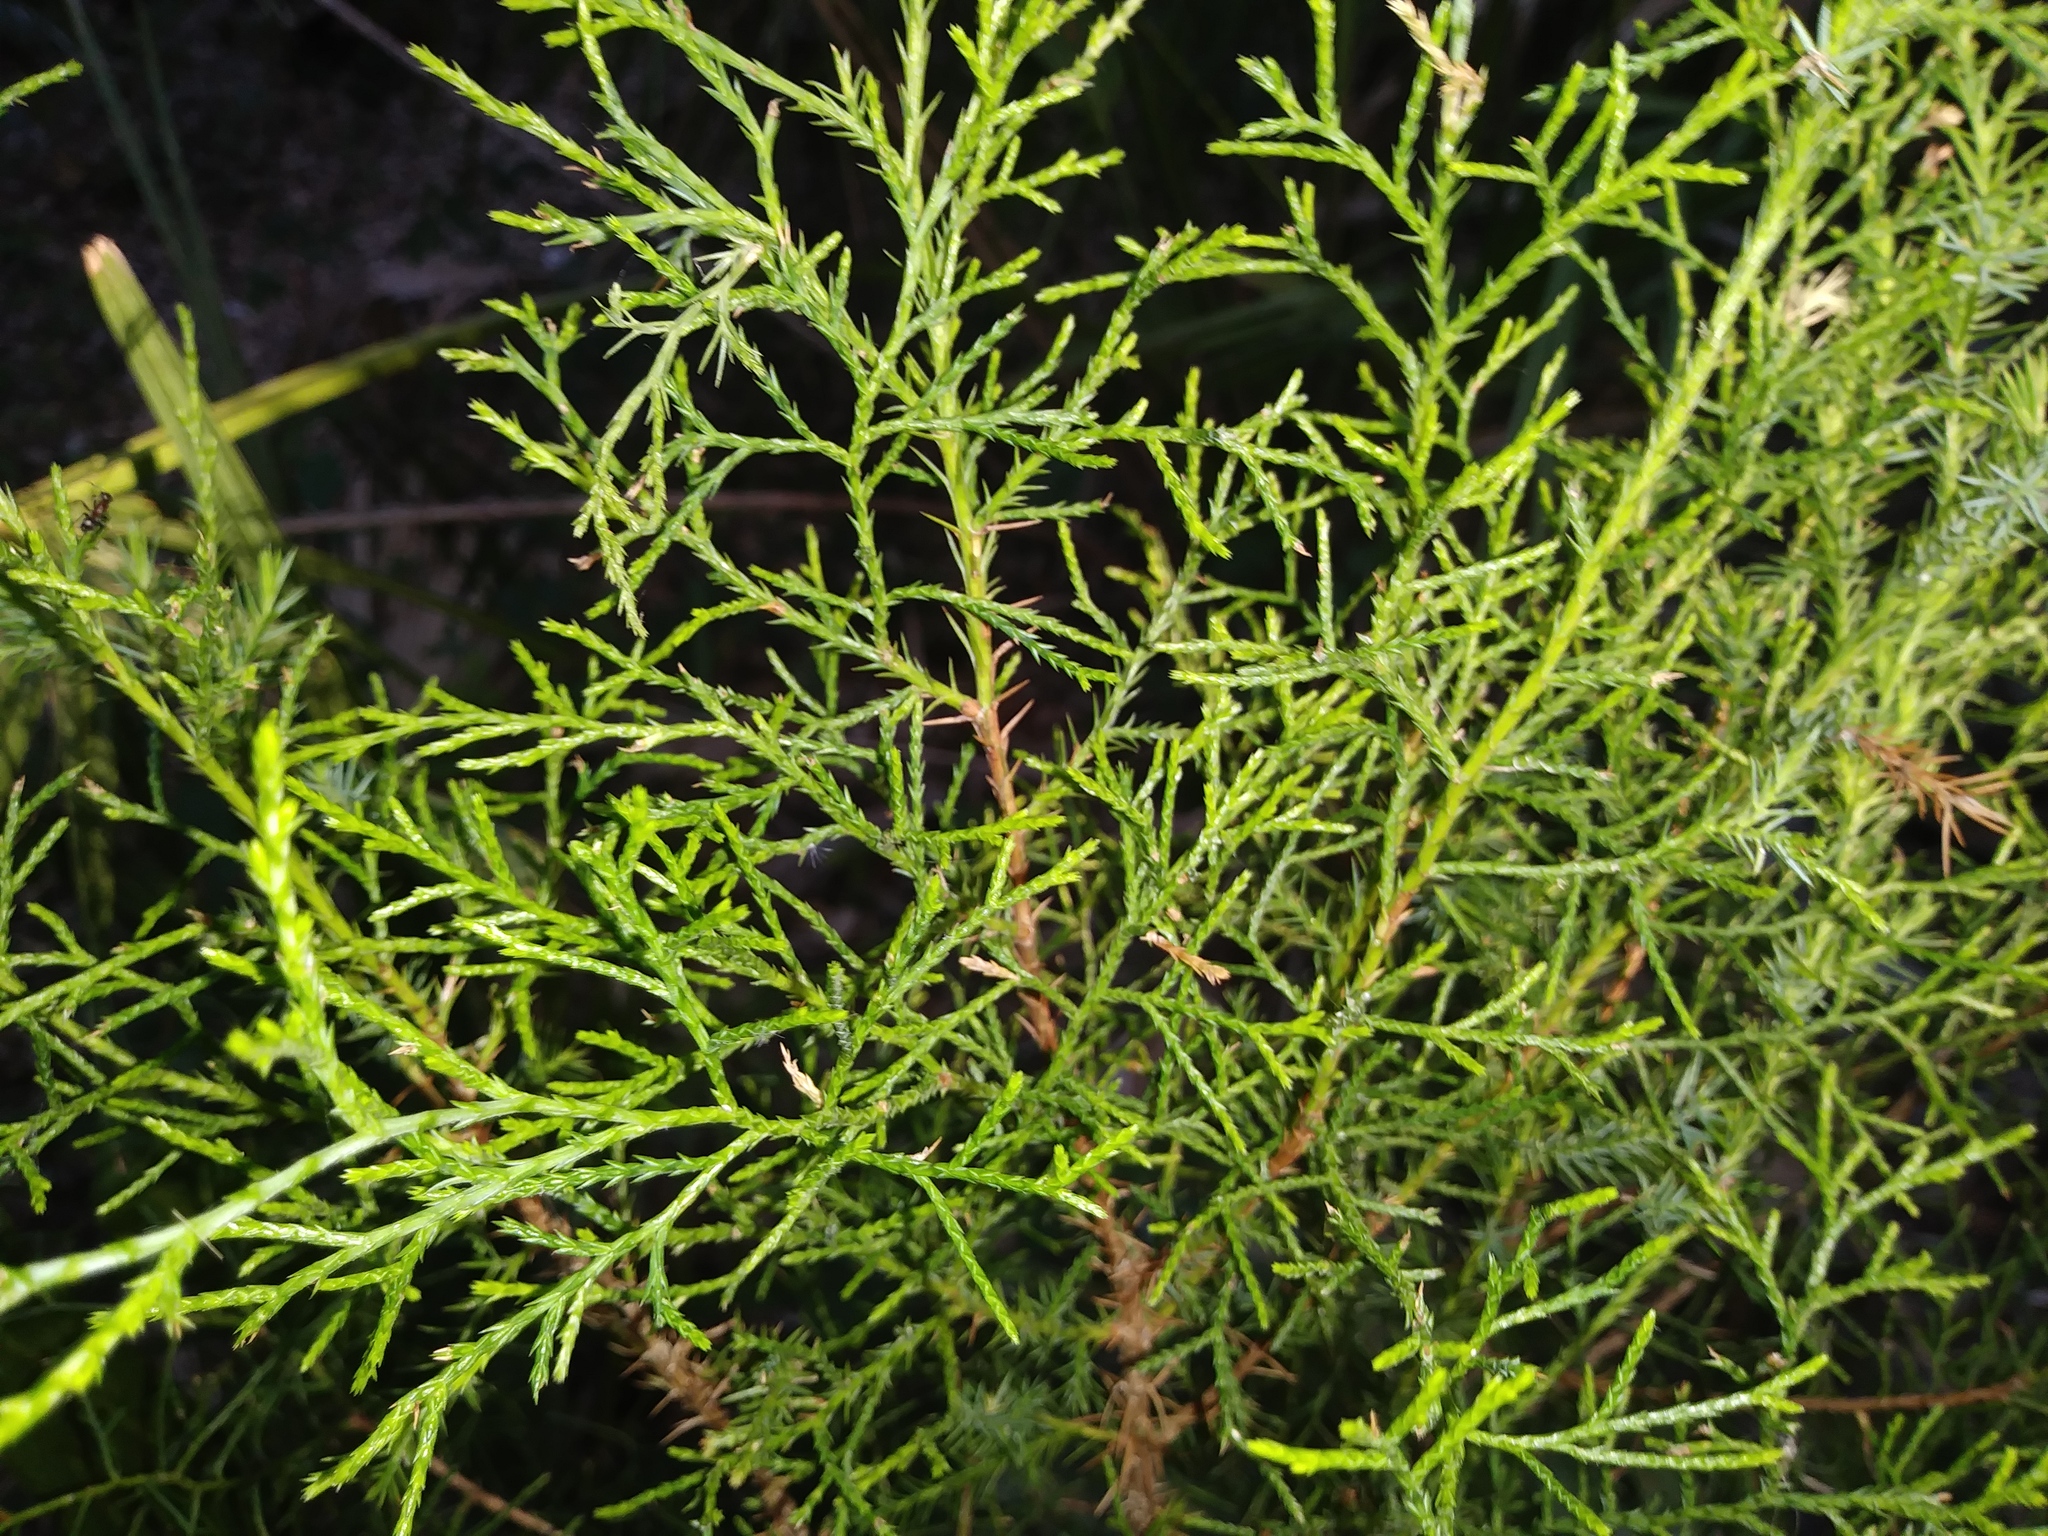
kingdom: Plantae
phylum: Tracheophyta
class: Pinopsida
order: Pinales
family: Cupressaceae
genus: Juniperus
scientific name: Juniperus virginiana
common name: Red juniper
